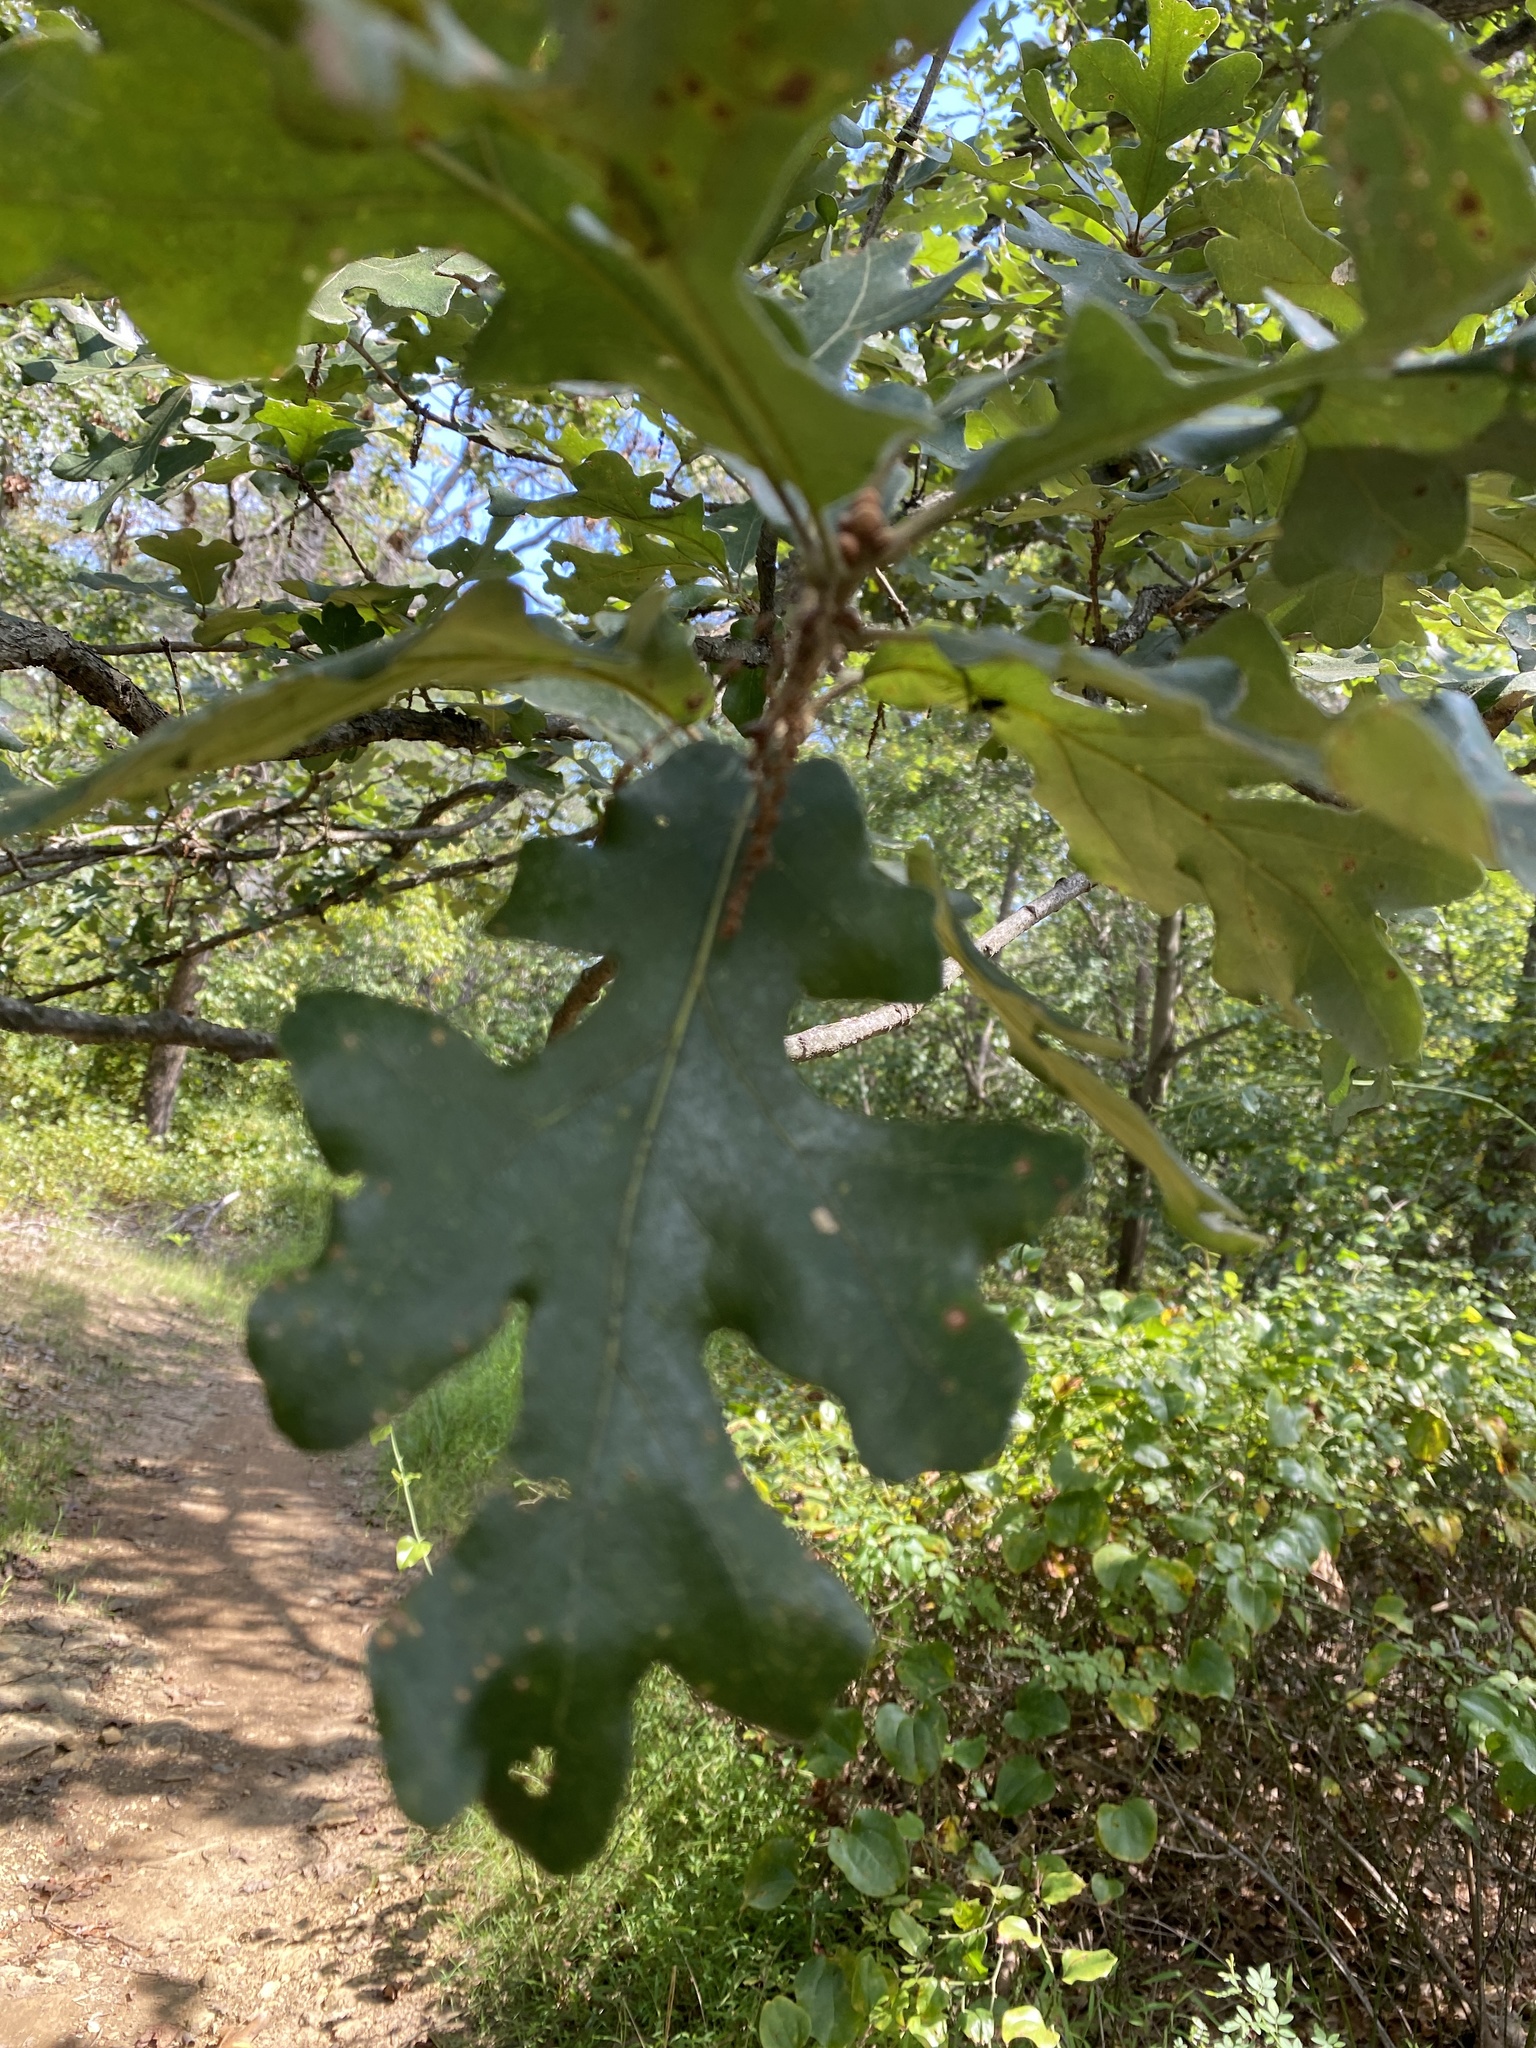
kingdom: Plantae
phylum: Tracheophyta
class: Magnoliopsida
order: Fagales
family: Fagaceae
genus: Quercus
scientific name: Quercus stellata
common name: Post oak
